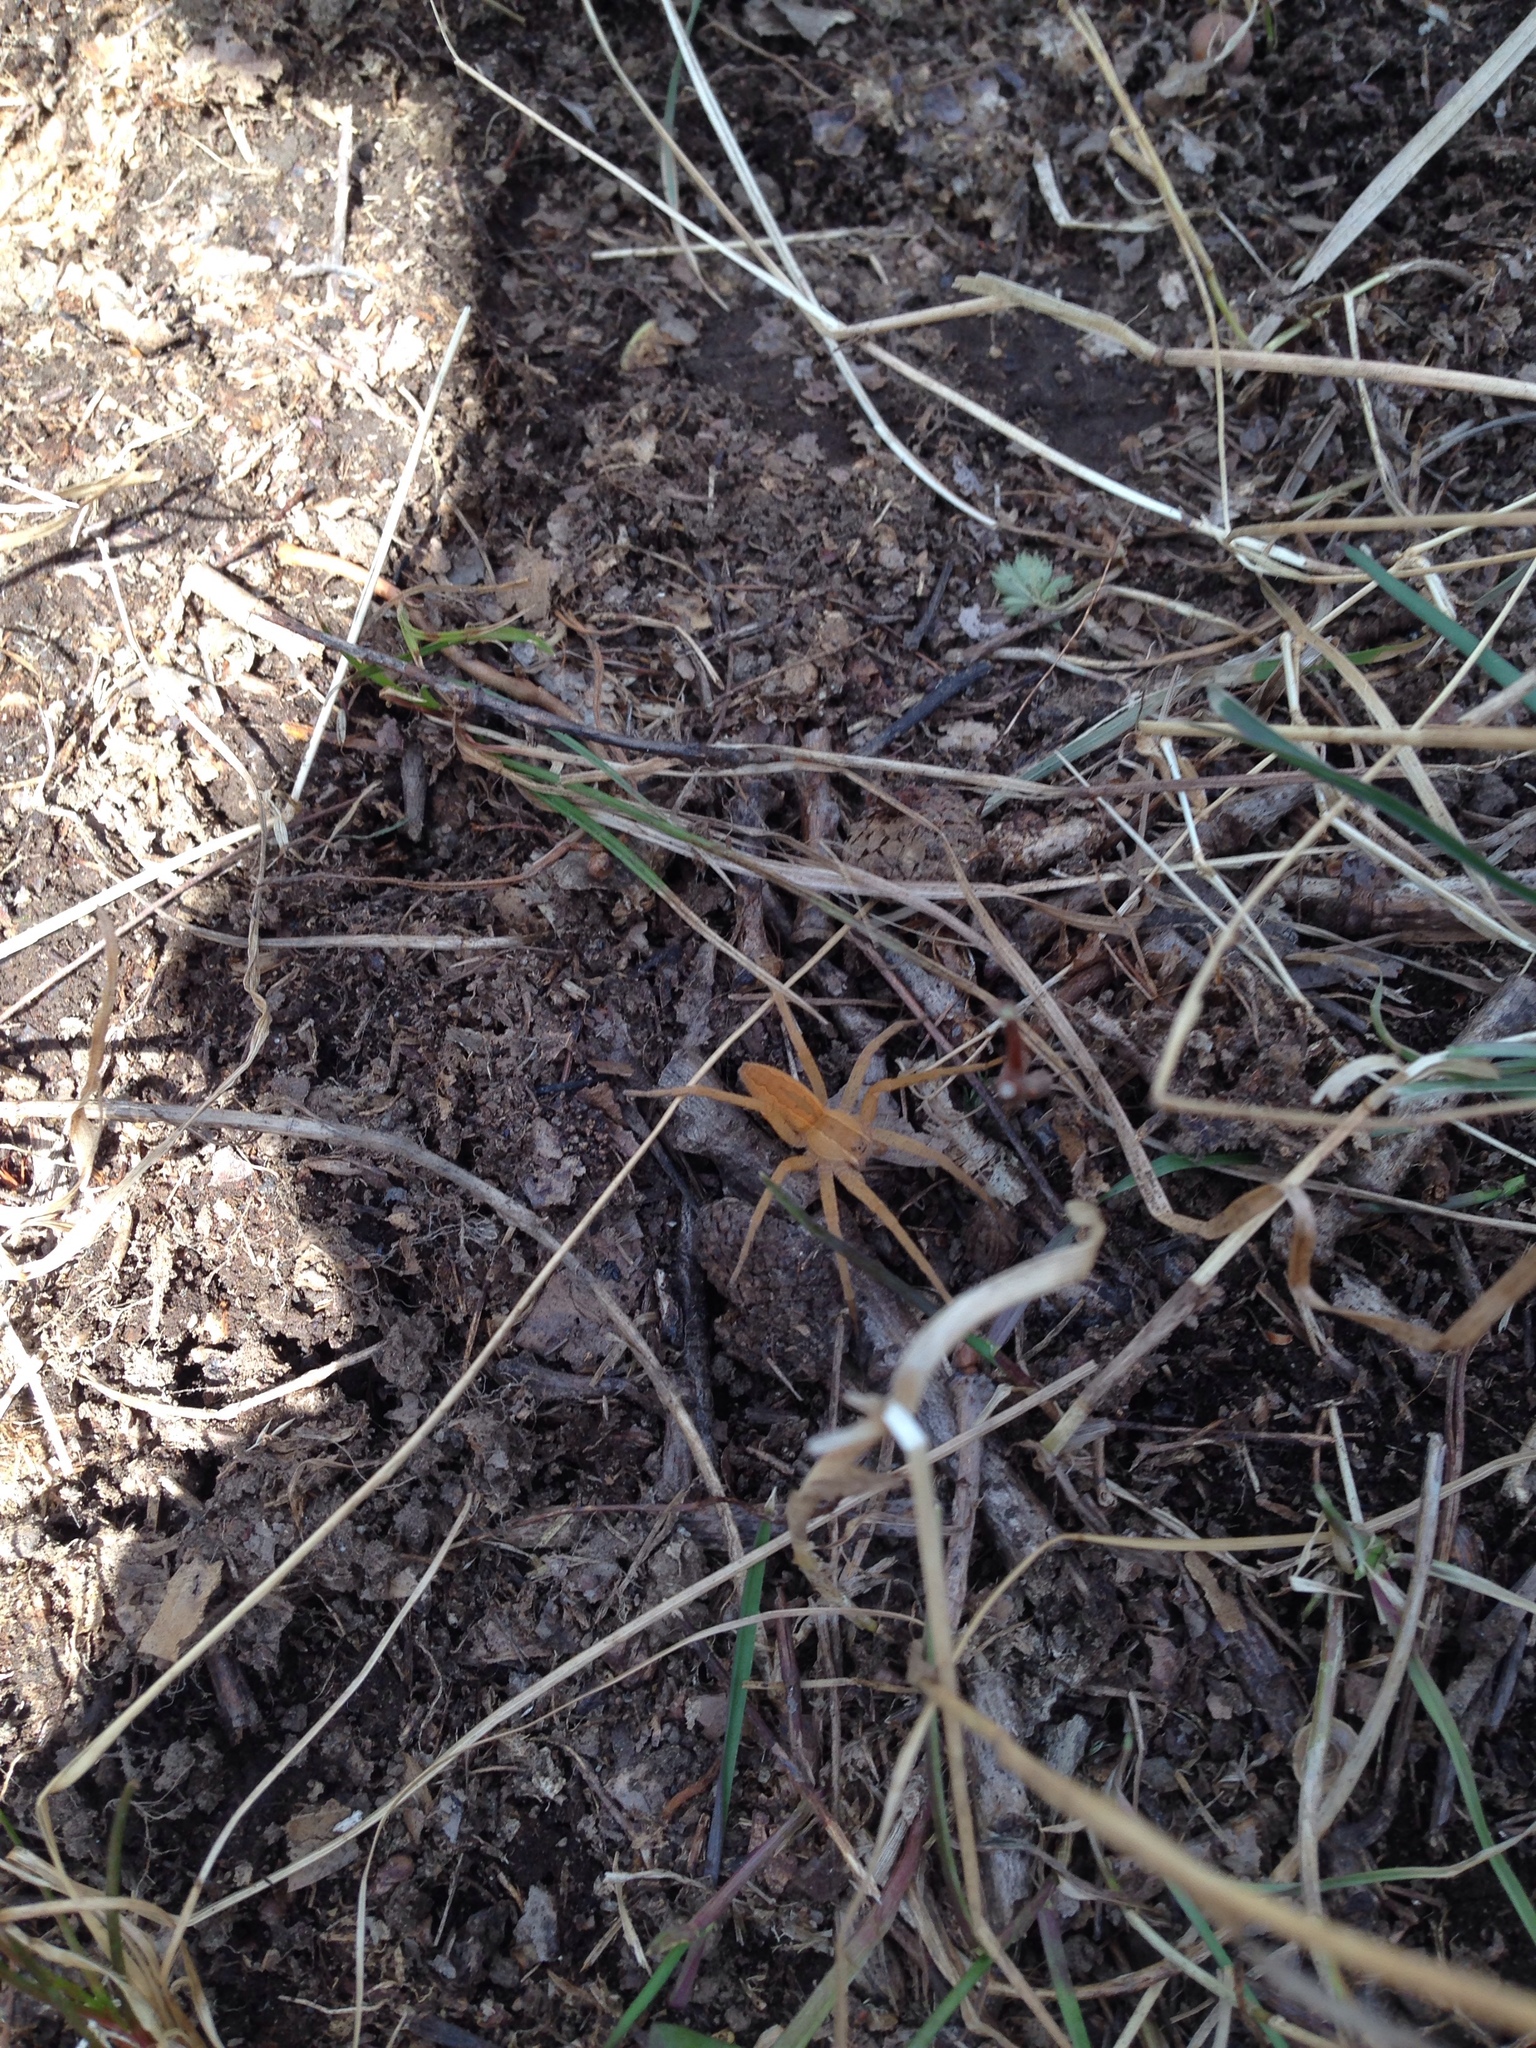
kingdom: Animalia
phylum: Arthropoda
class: Arachnida
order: Araneae
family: Pisauridae
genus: Pisaurina
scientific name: Pisaurina mira
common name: American nursery web spider
